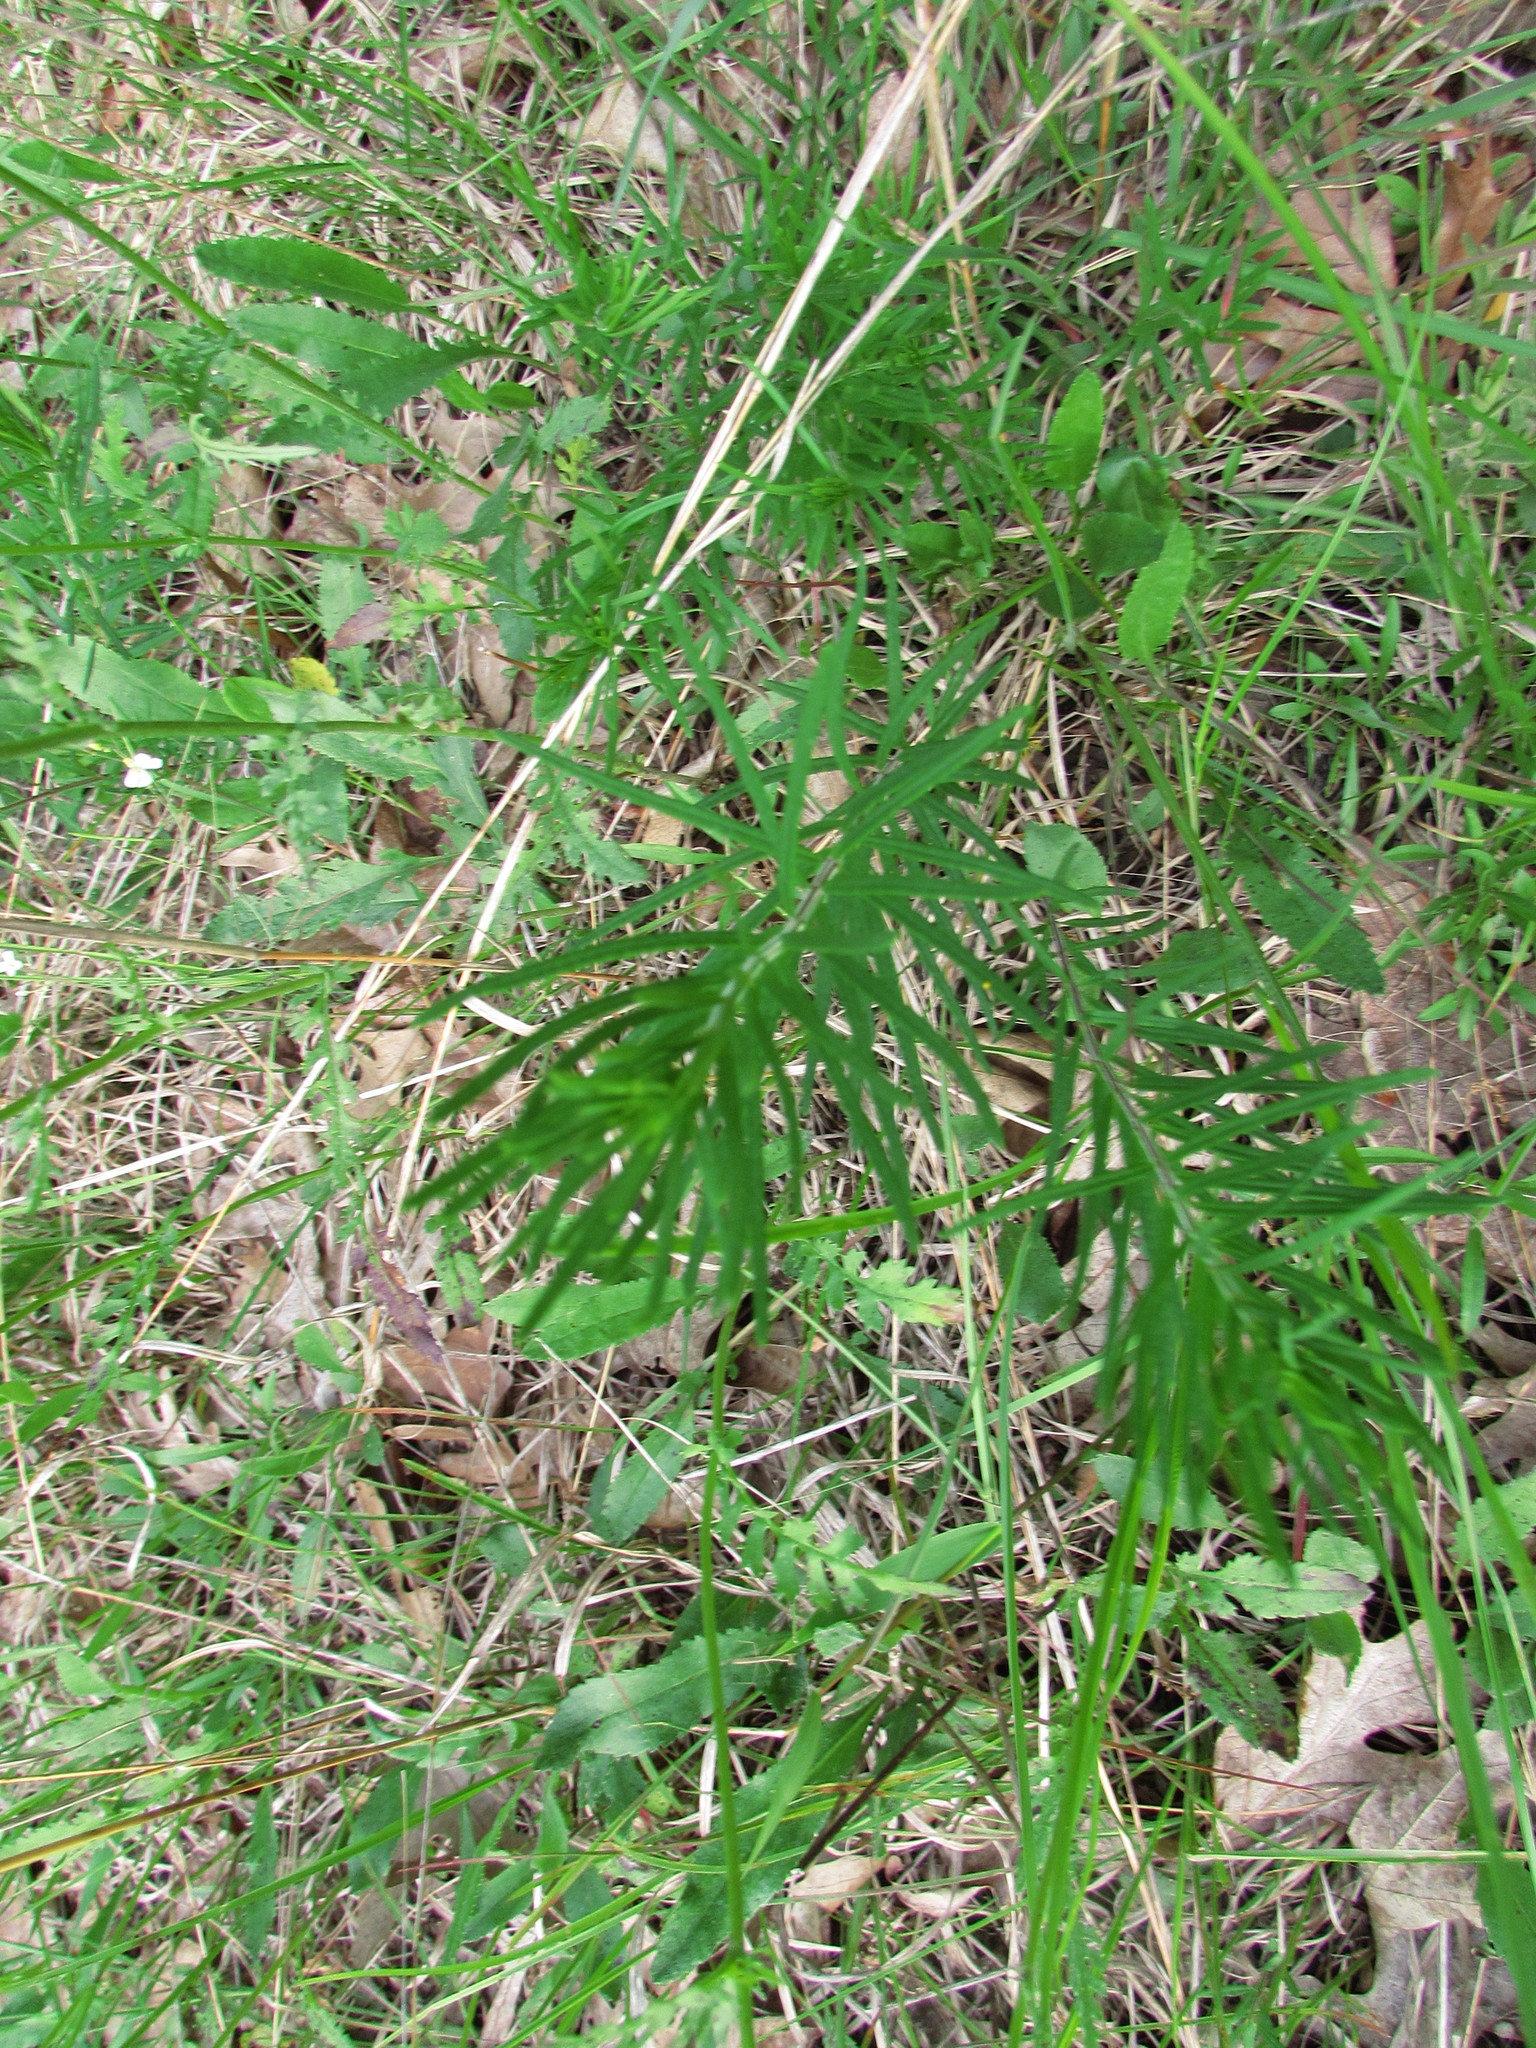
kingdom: Plantae
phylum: Tracheophyta
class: Magnoliopsida
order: Gentianales
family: Apocynaceae
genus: Asclepias
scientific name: Asclepias verticillata
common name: Eastern whorled milkweed
